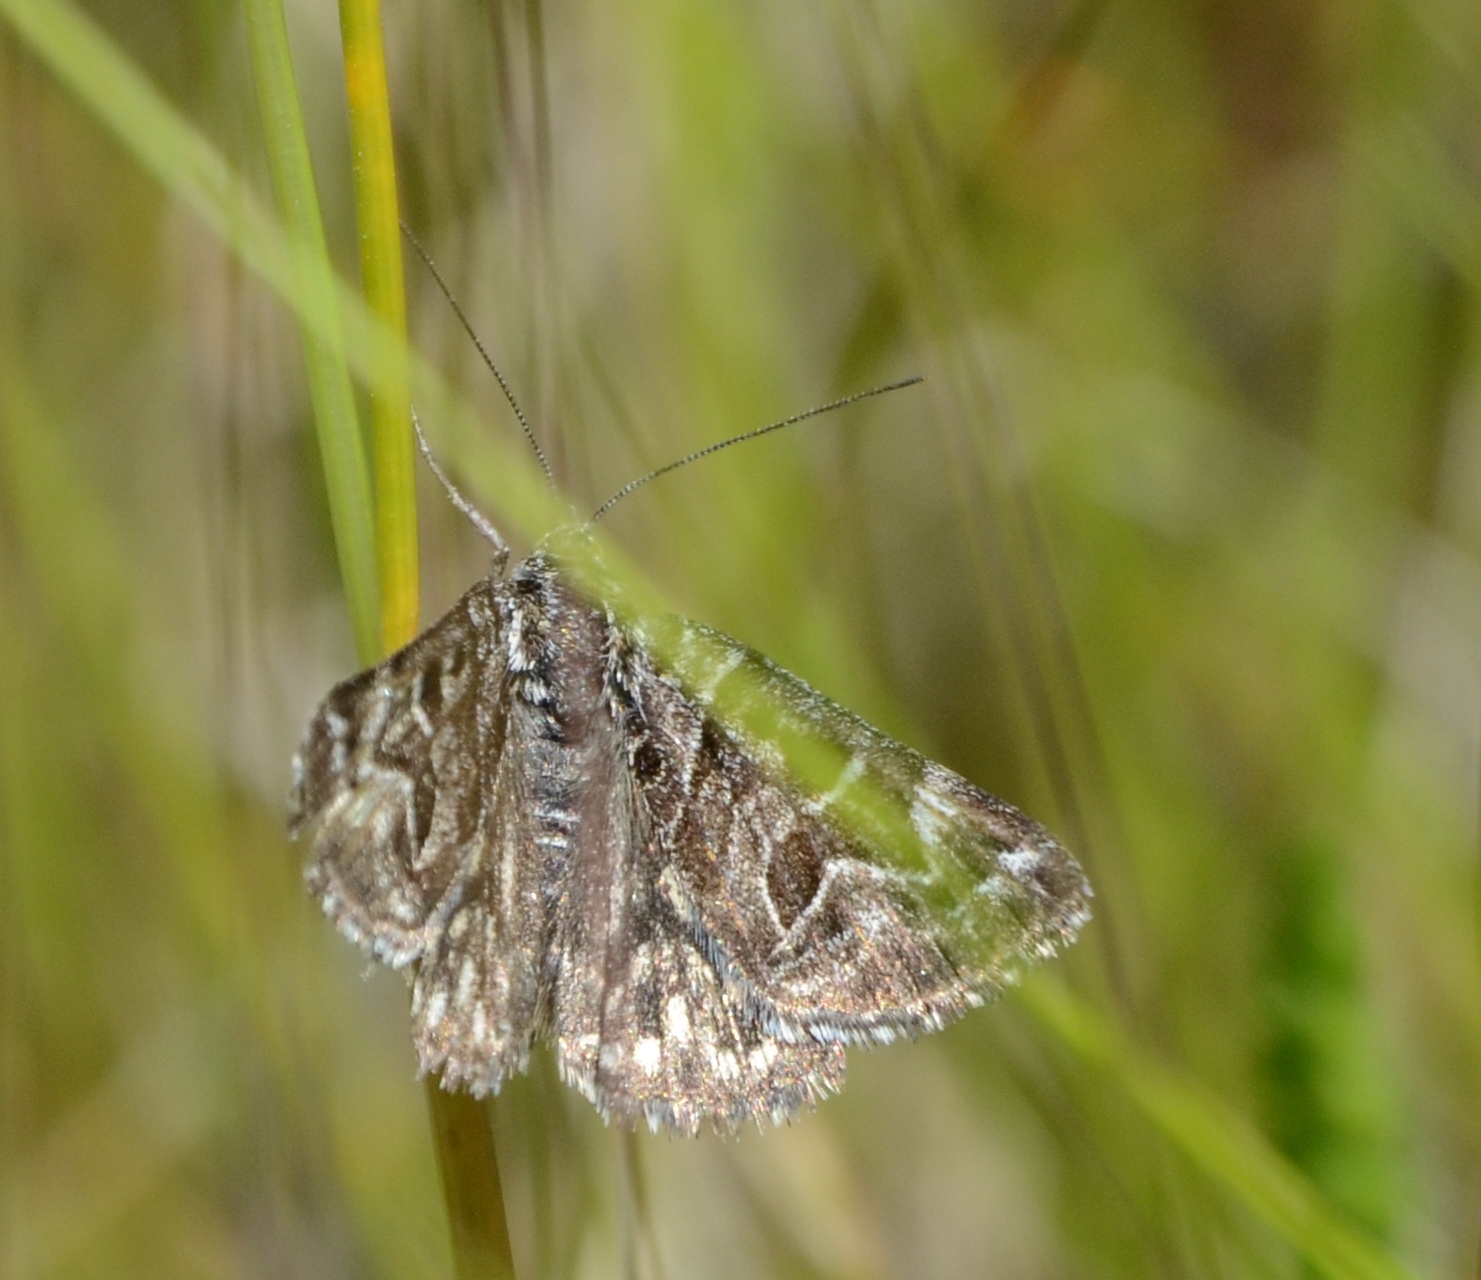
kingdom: Animalia
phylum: Arthropoda
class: Insecta
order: Lepidoptera
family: Erebidae
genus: Callistege
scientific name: Callistege mi
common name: Mother shipton
